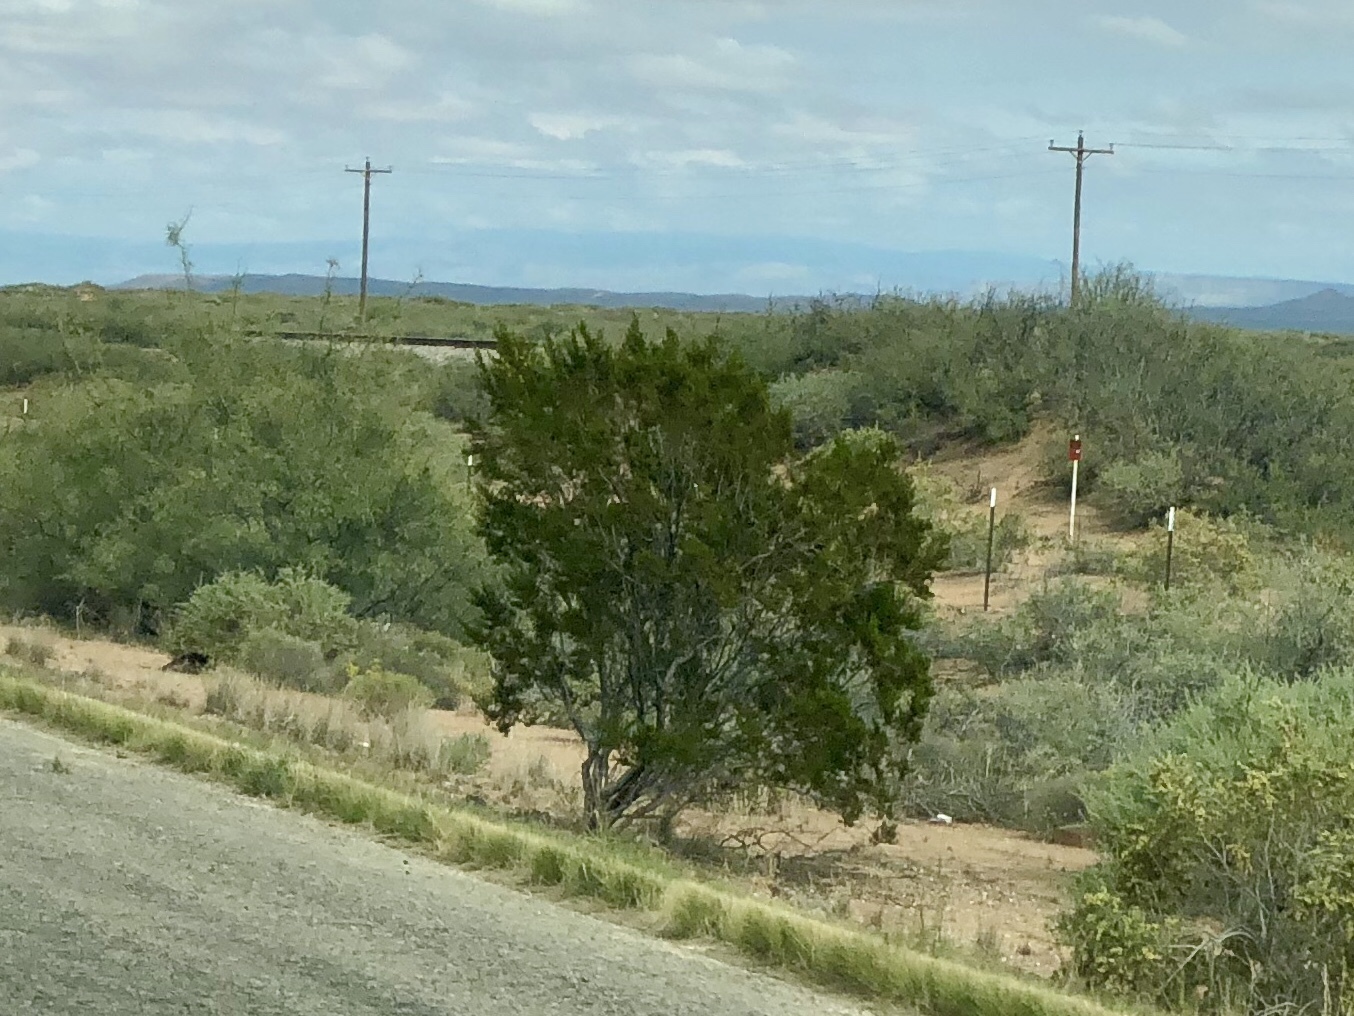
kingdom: Plantae
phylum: Tracheophyta
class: Magnoliopsida
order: Zygophyllales
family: Zygophyllaceae
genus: Larrea
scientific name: Larrea tridentata
